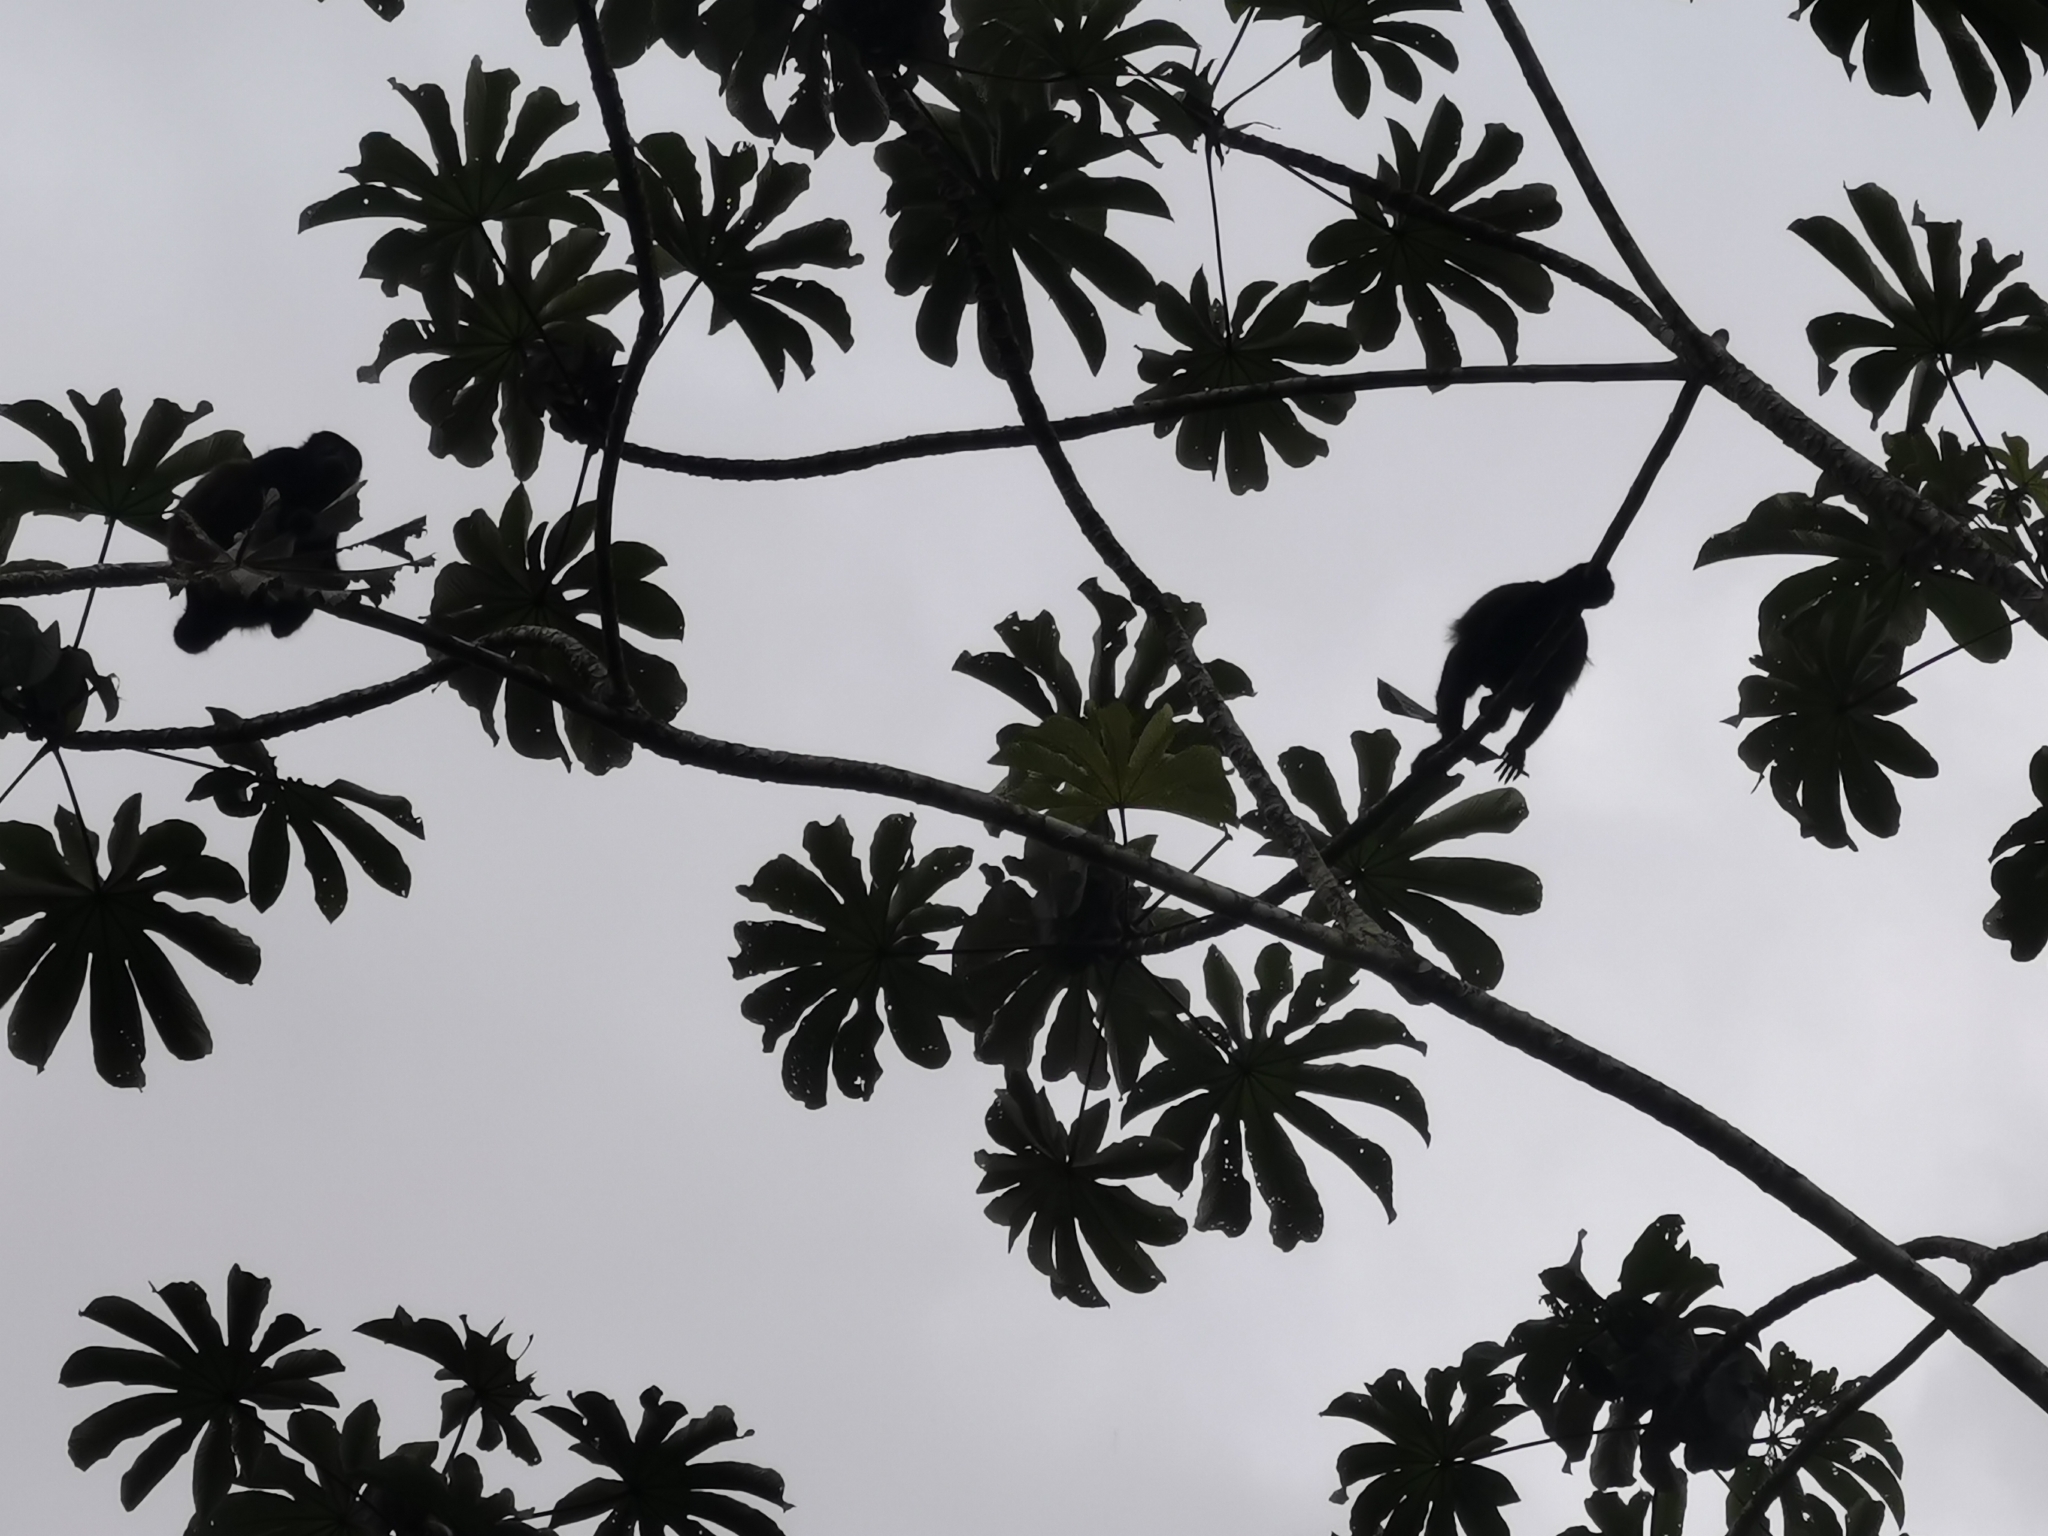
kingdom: Animalia
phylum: Chordata
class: Mammalia
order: Primates
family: Atelidae
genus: Alouatta
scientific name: Alouatta palliata
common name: Mantled howler
